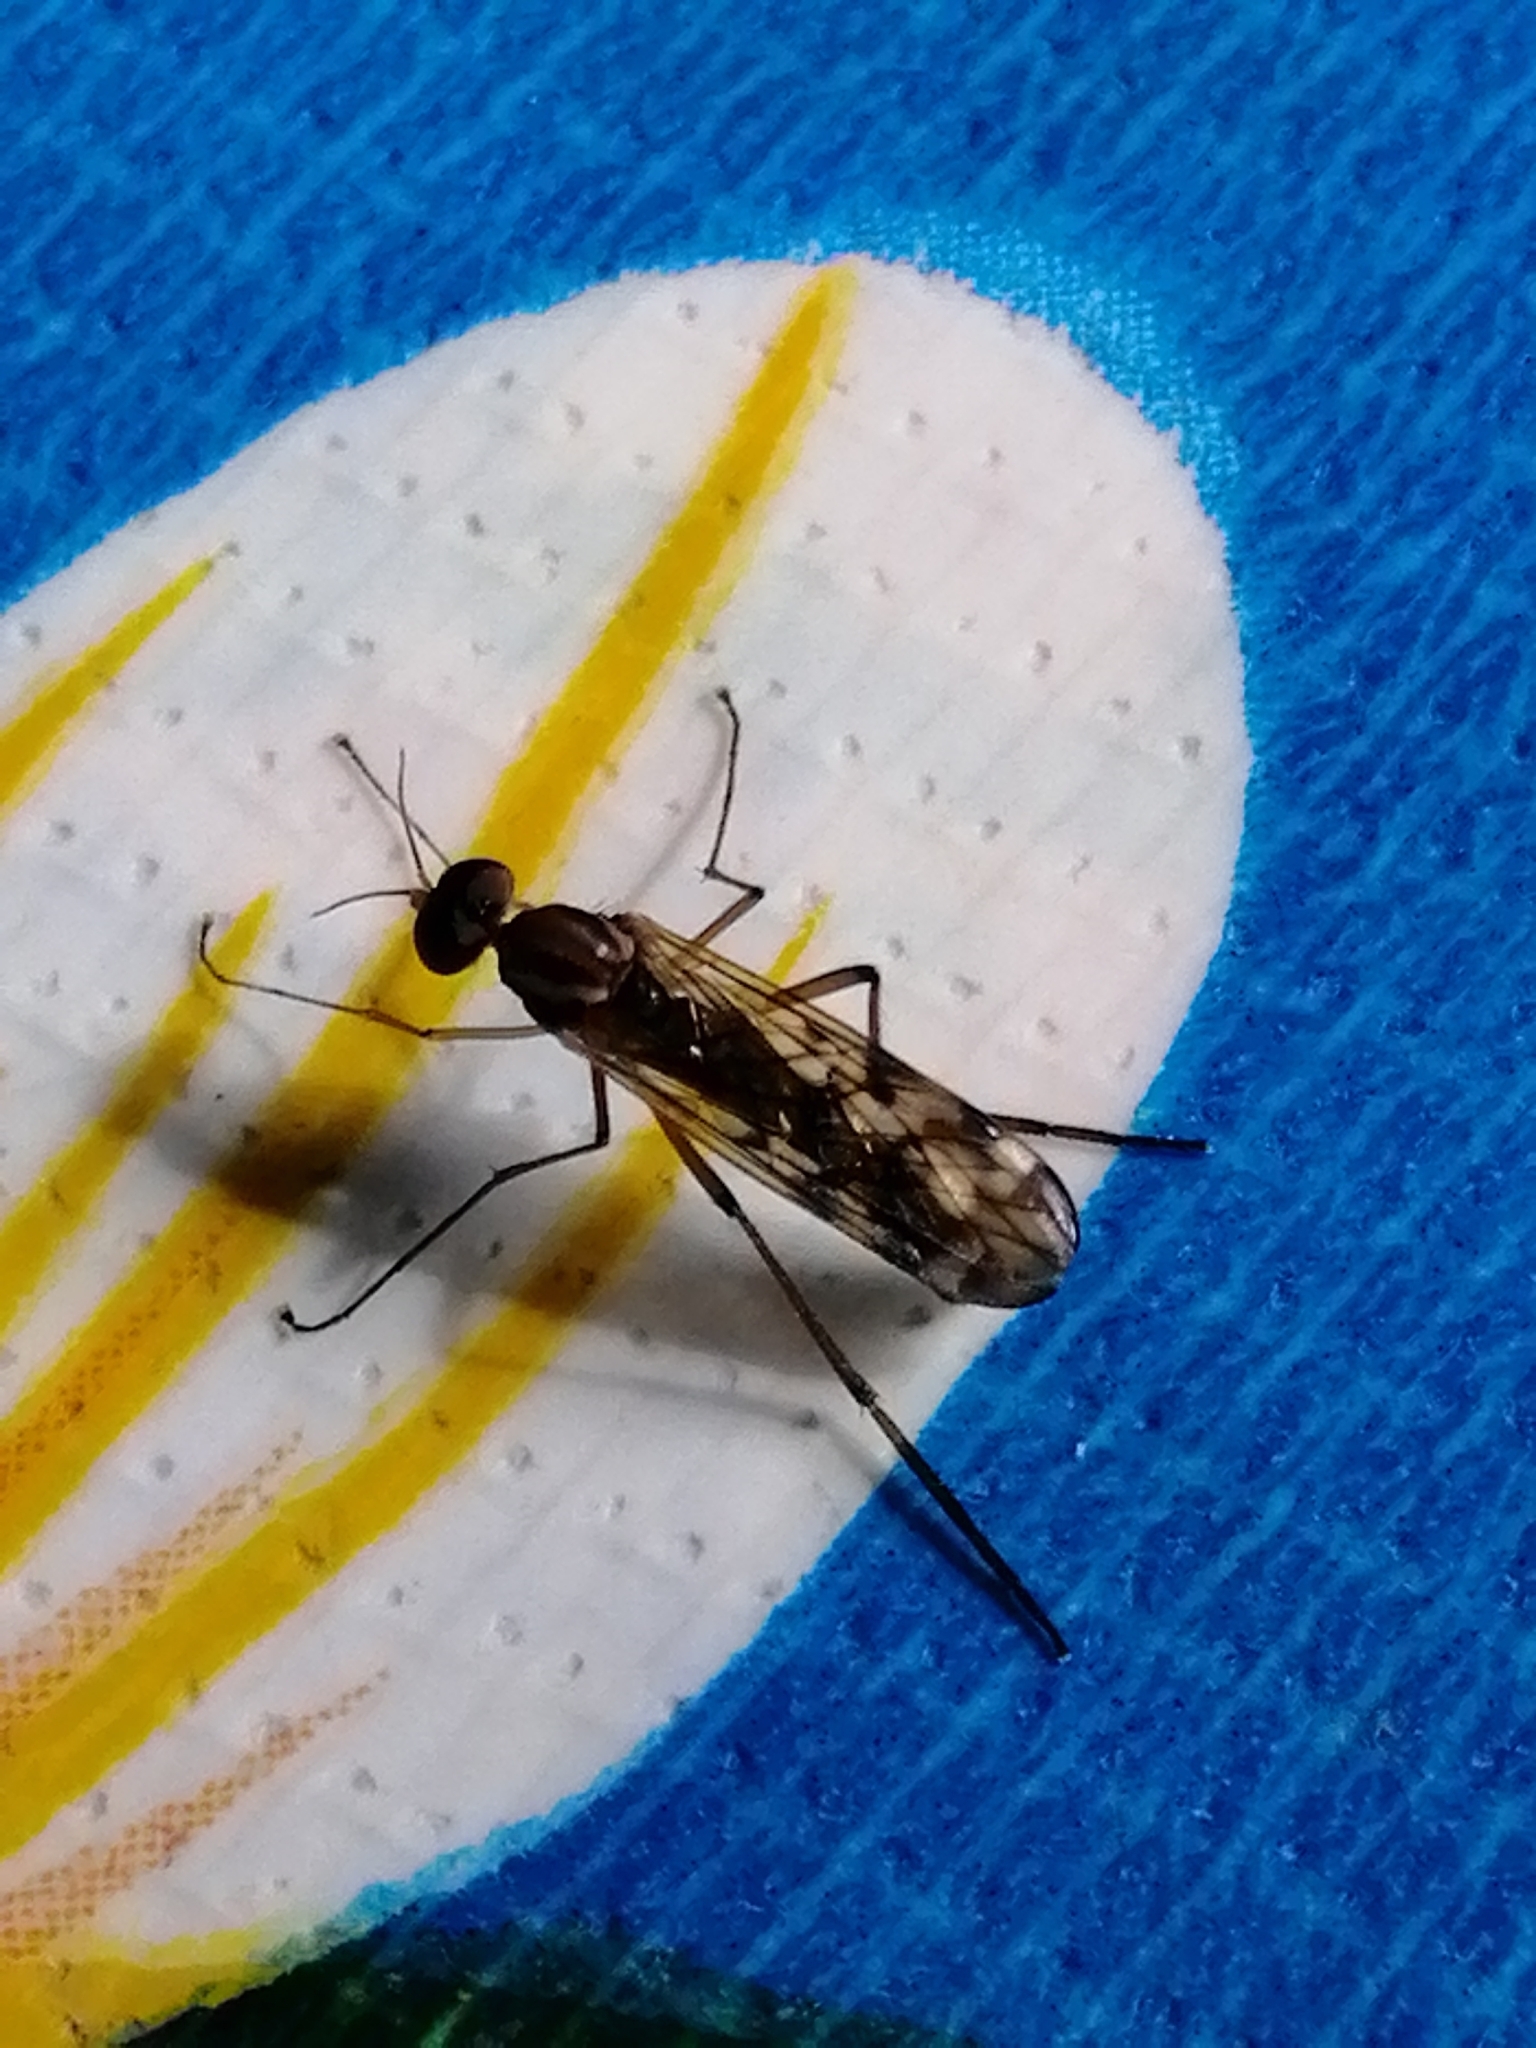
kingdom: Animalia
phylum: Arthropoda
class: Insecta
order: Diptera
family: Anisopodidae
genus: Sylvicola
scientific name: Sylvicola notatus
